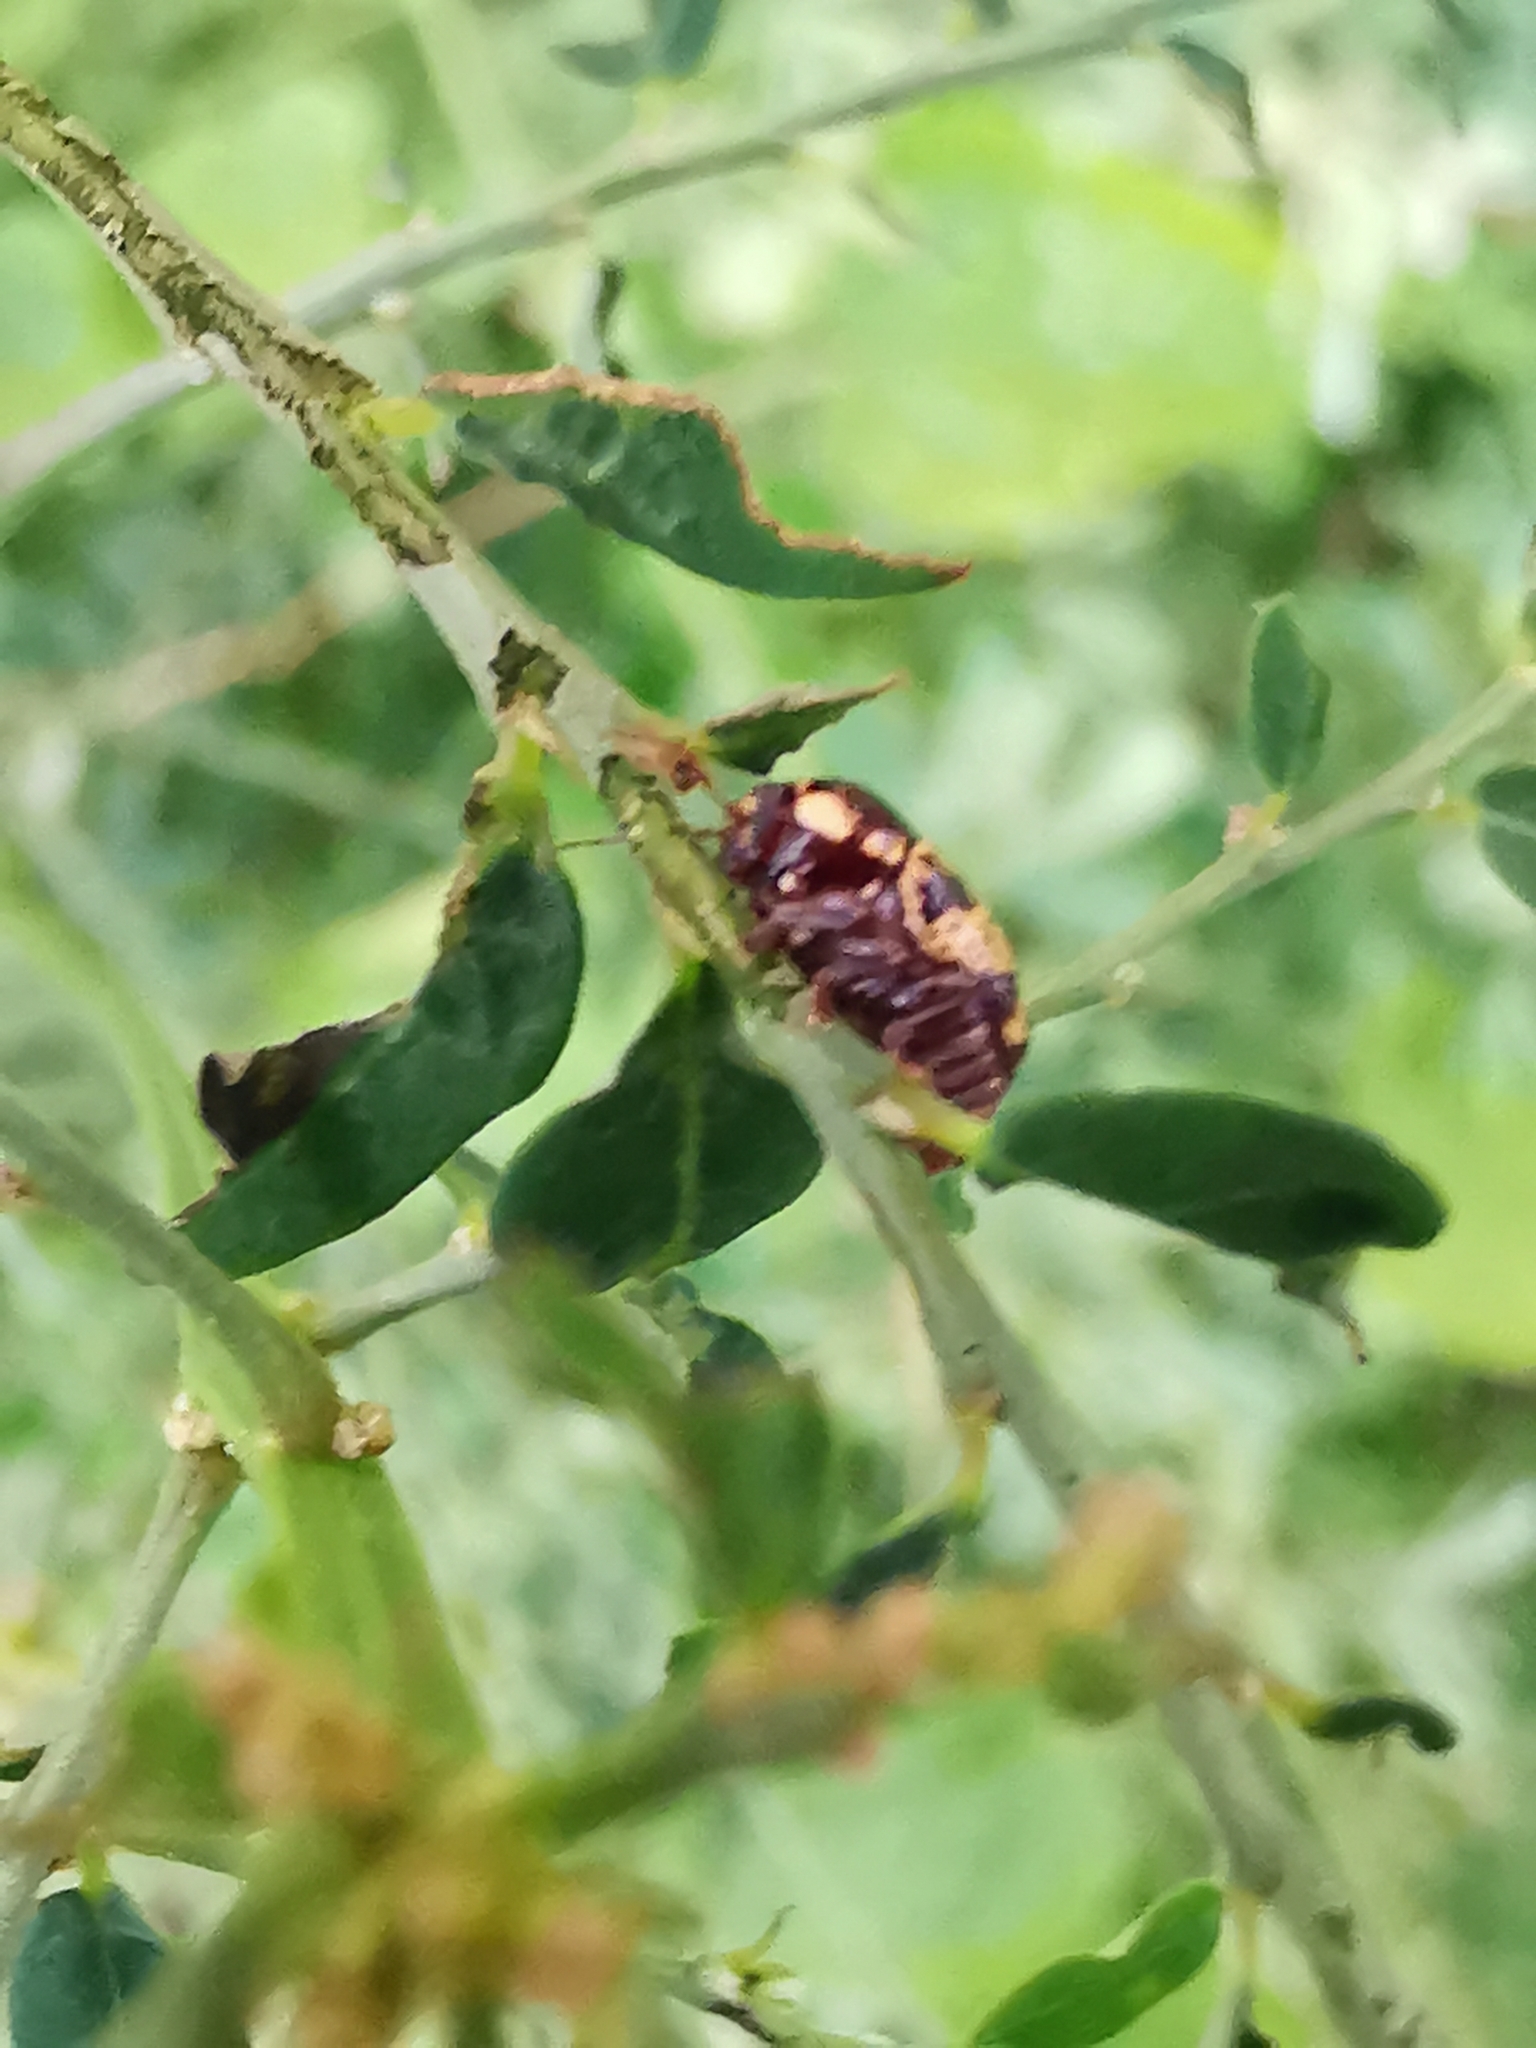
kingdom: Animalia
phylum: Arthropoda
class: Insecta
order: Coleoptera
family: Chrysomelidae
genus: Cryptocephalus
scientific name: Cryptocephalus irroratus
